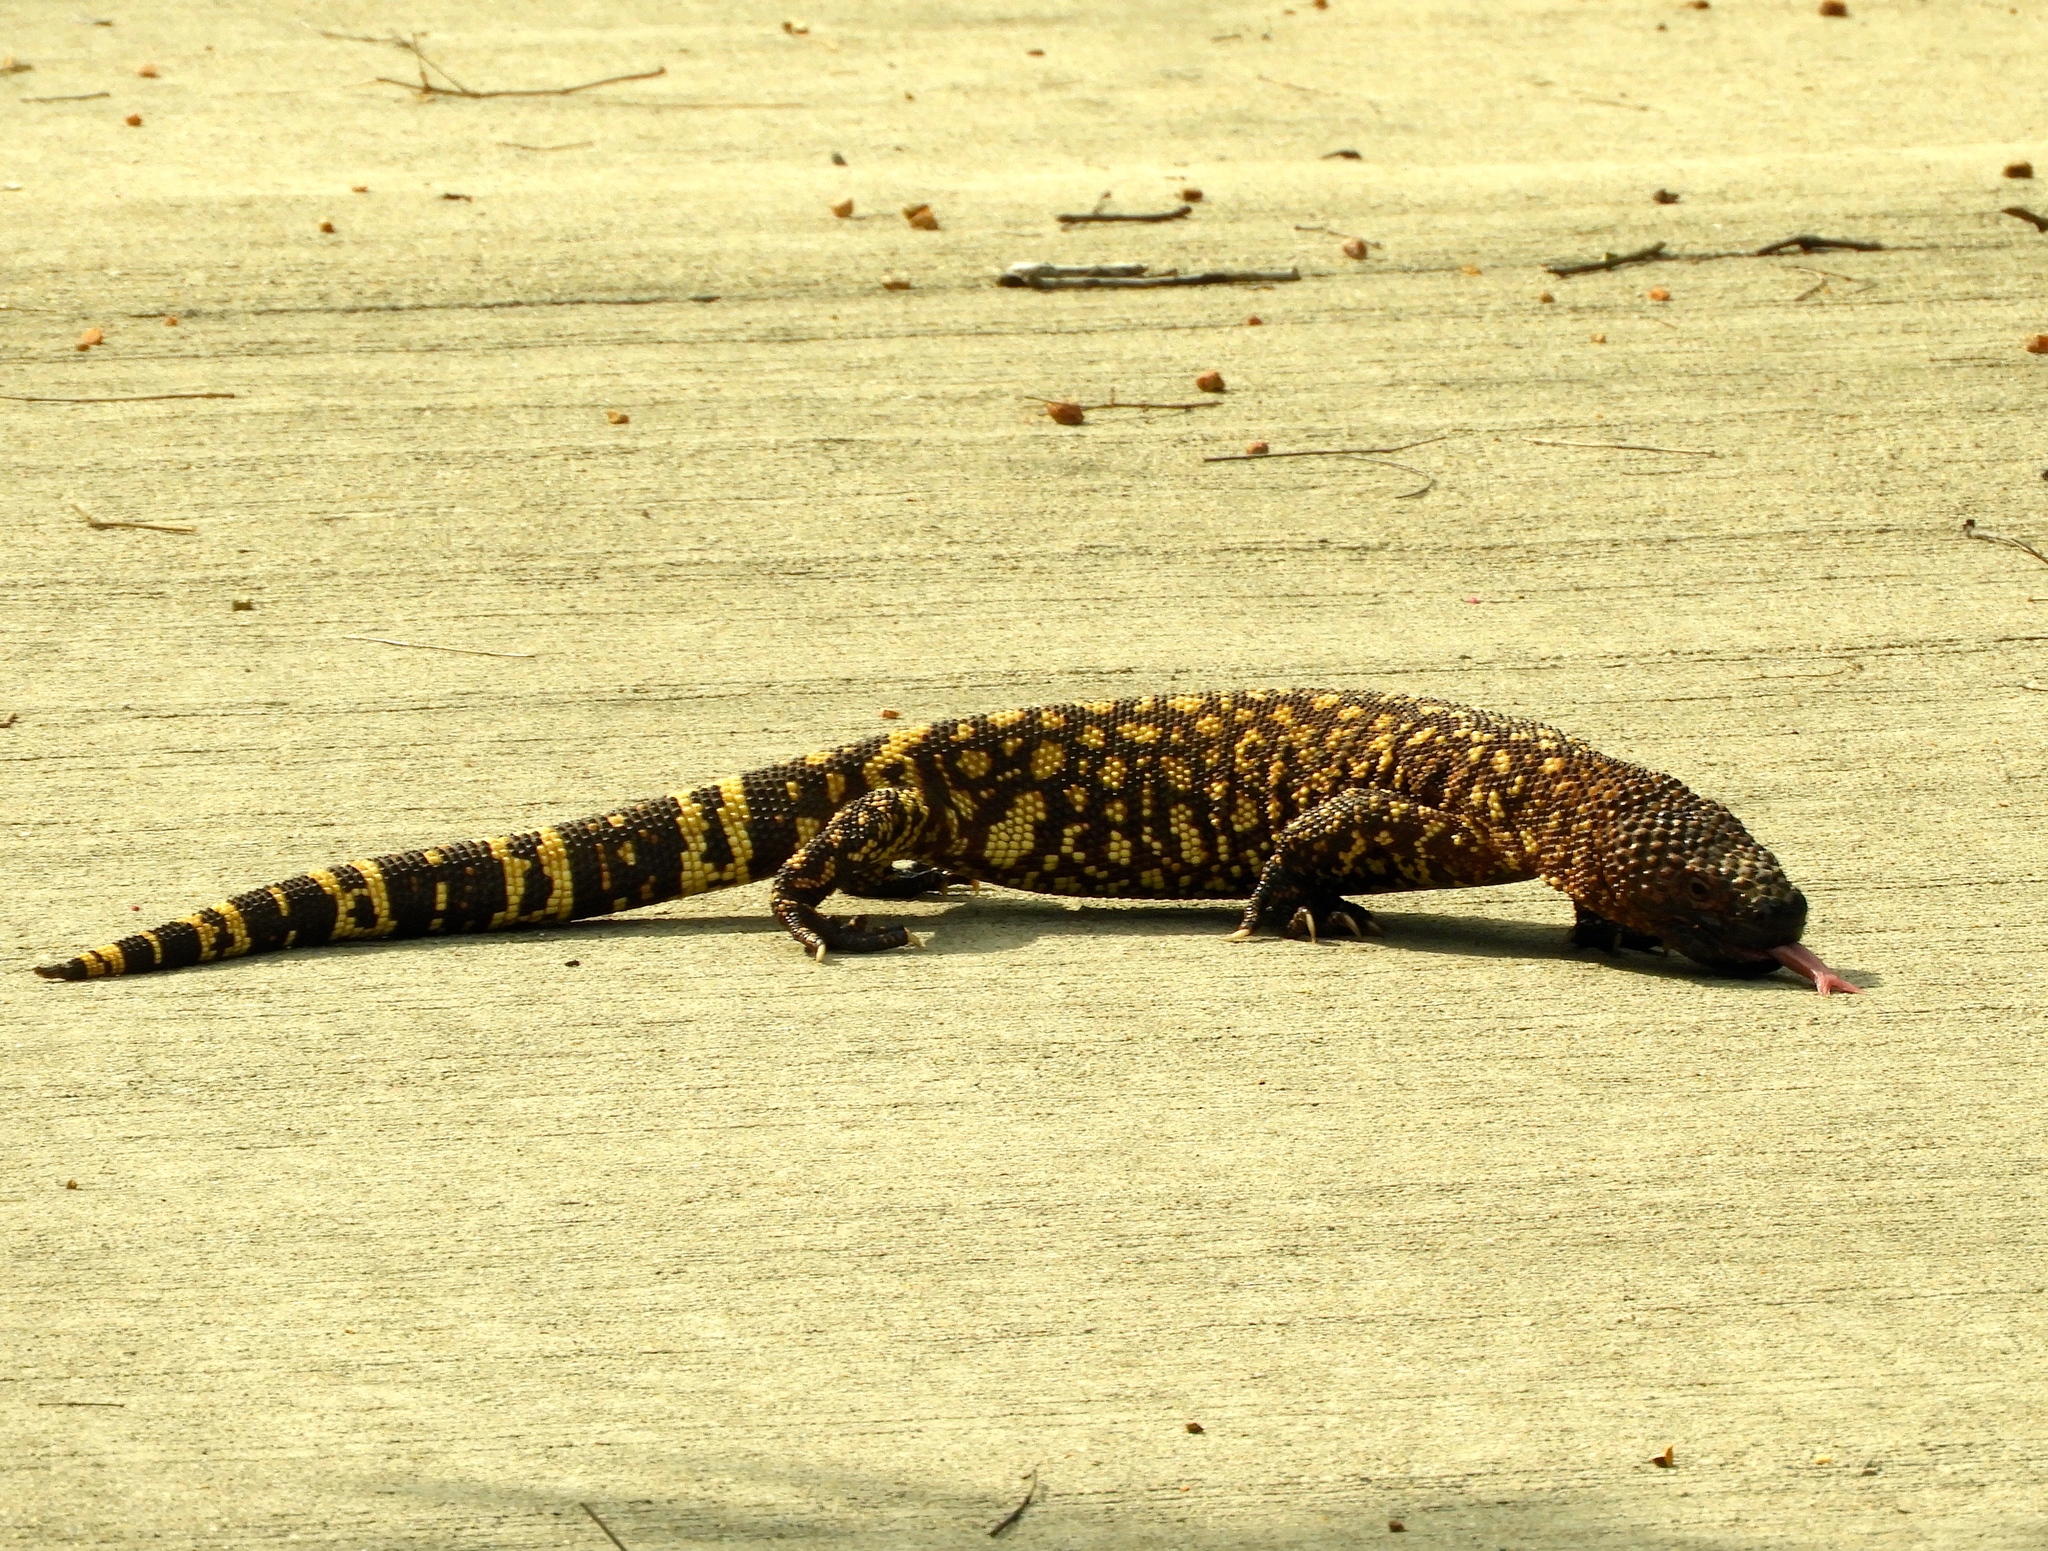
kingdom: Animalia
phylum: Chordata
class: Squamata
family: Helodermatidae
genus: Heloderma
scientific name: Heloderma horridum
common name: Mexican beaded lizard
